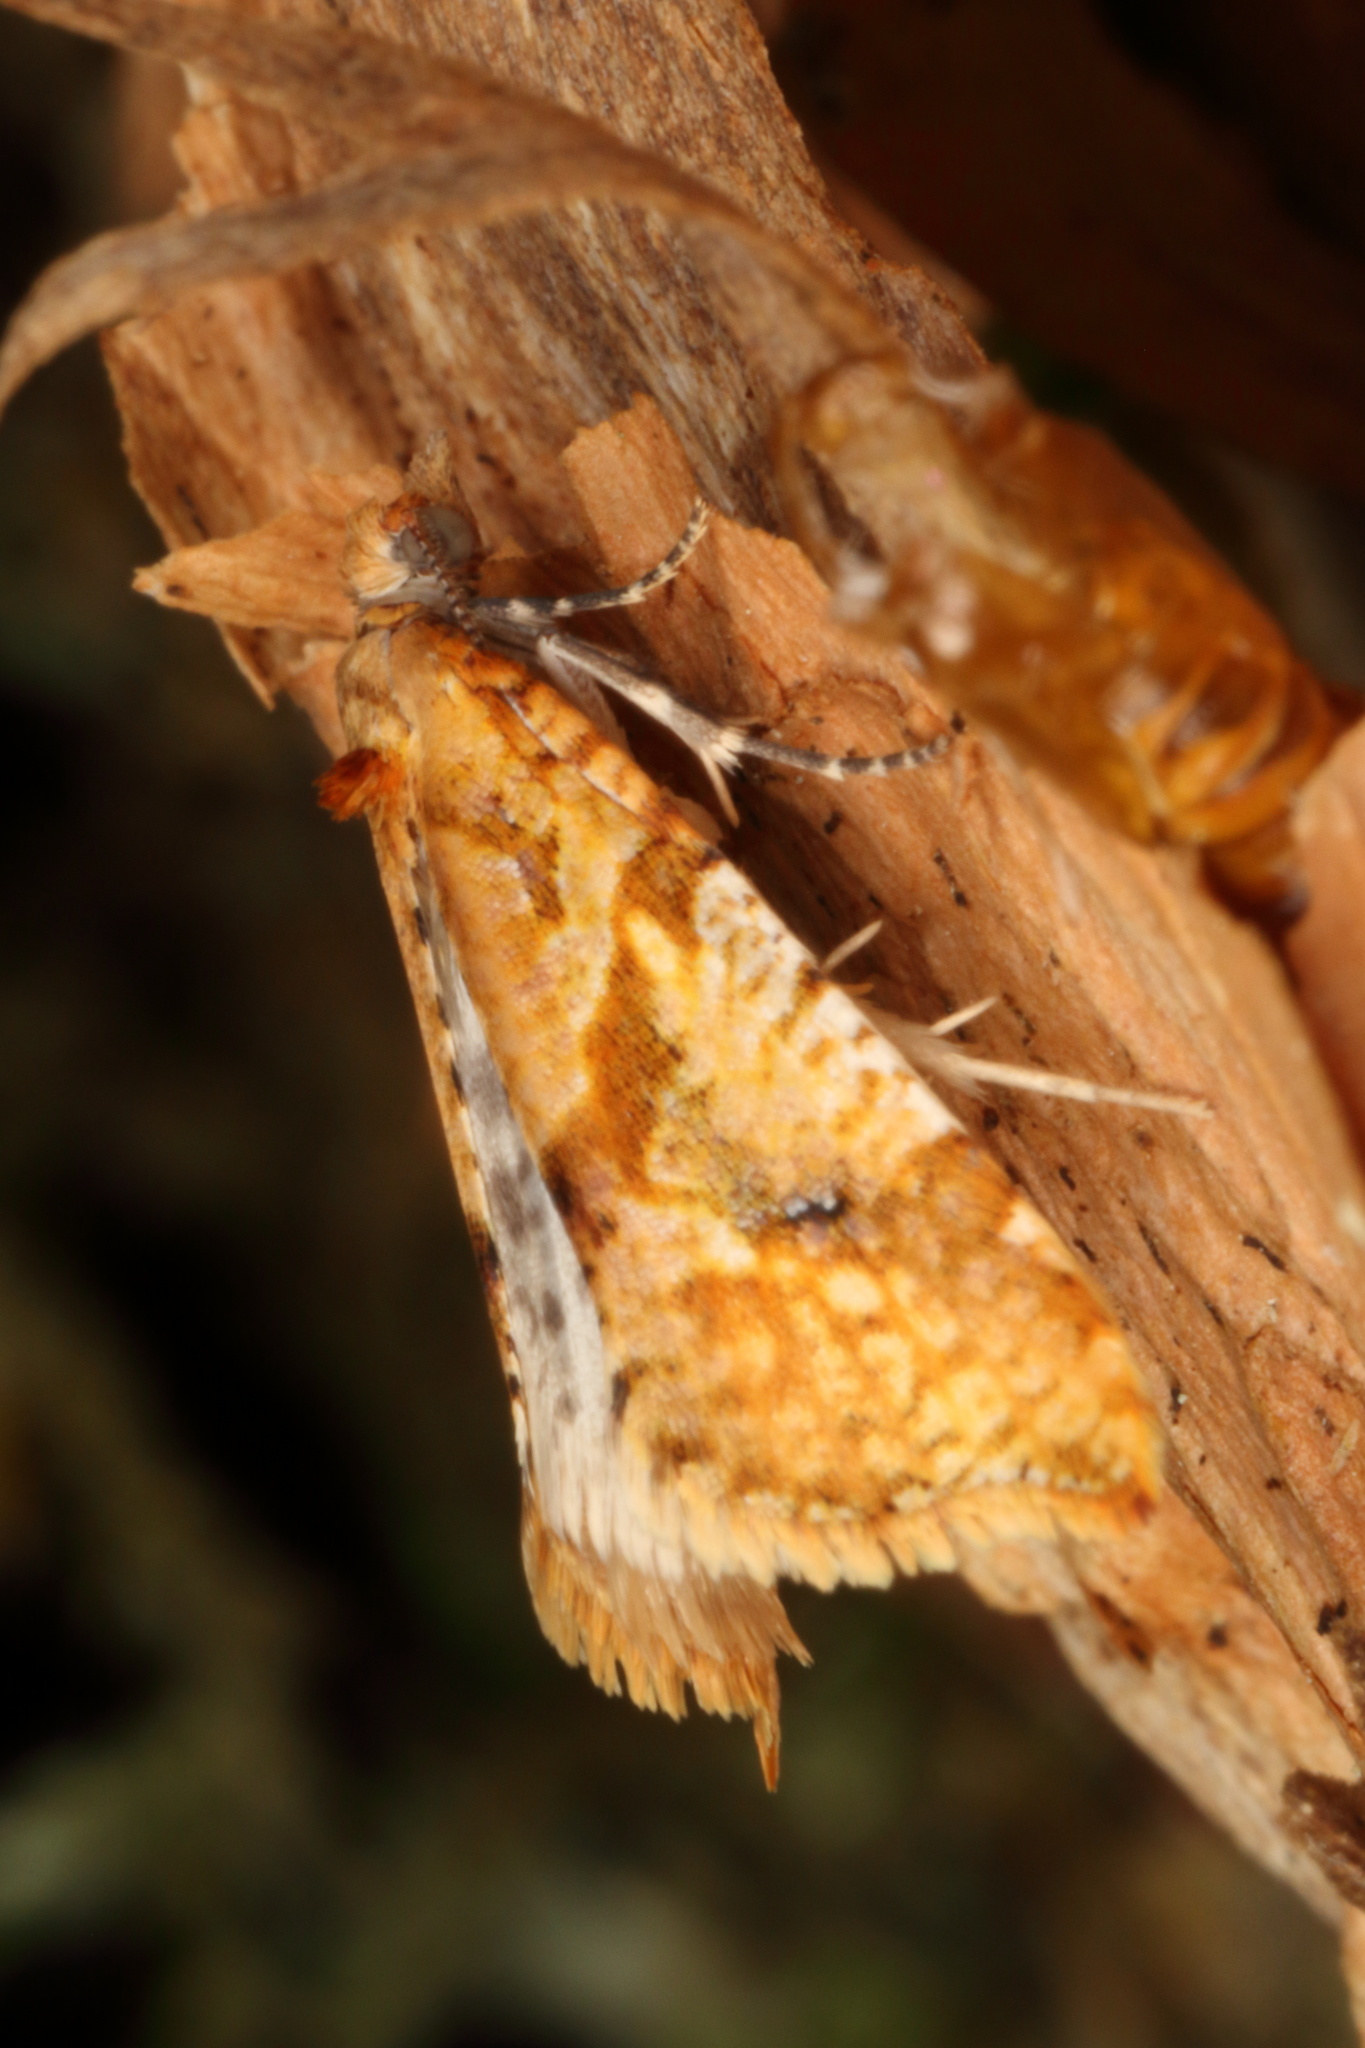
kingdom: Animalia
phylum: Arthropoda
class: Insecta
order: Lepidoptera
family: Tortricidae
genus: Pyrgotis
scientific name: Pyrgotis plagiatana
